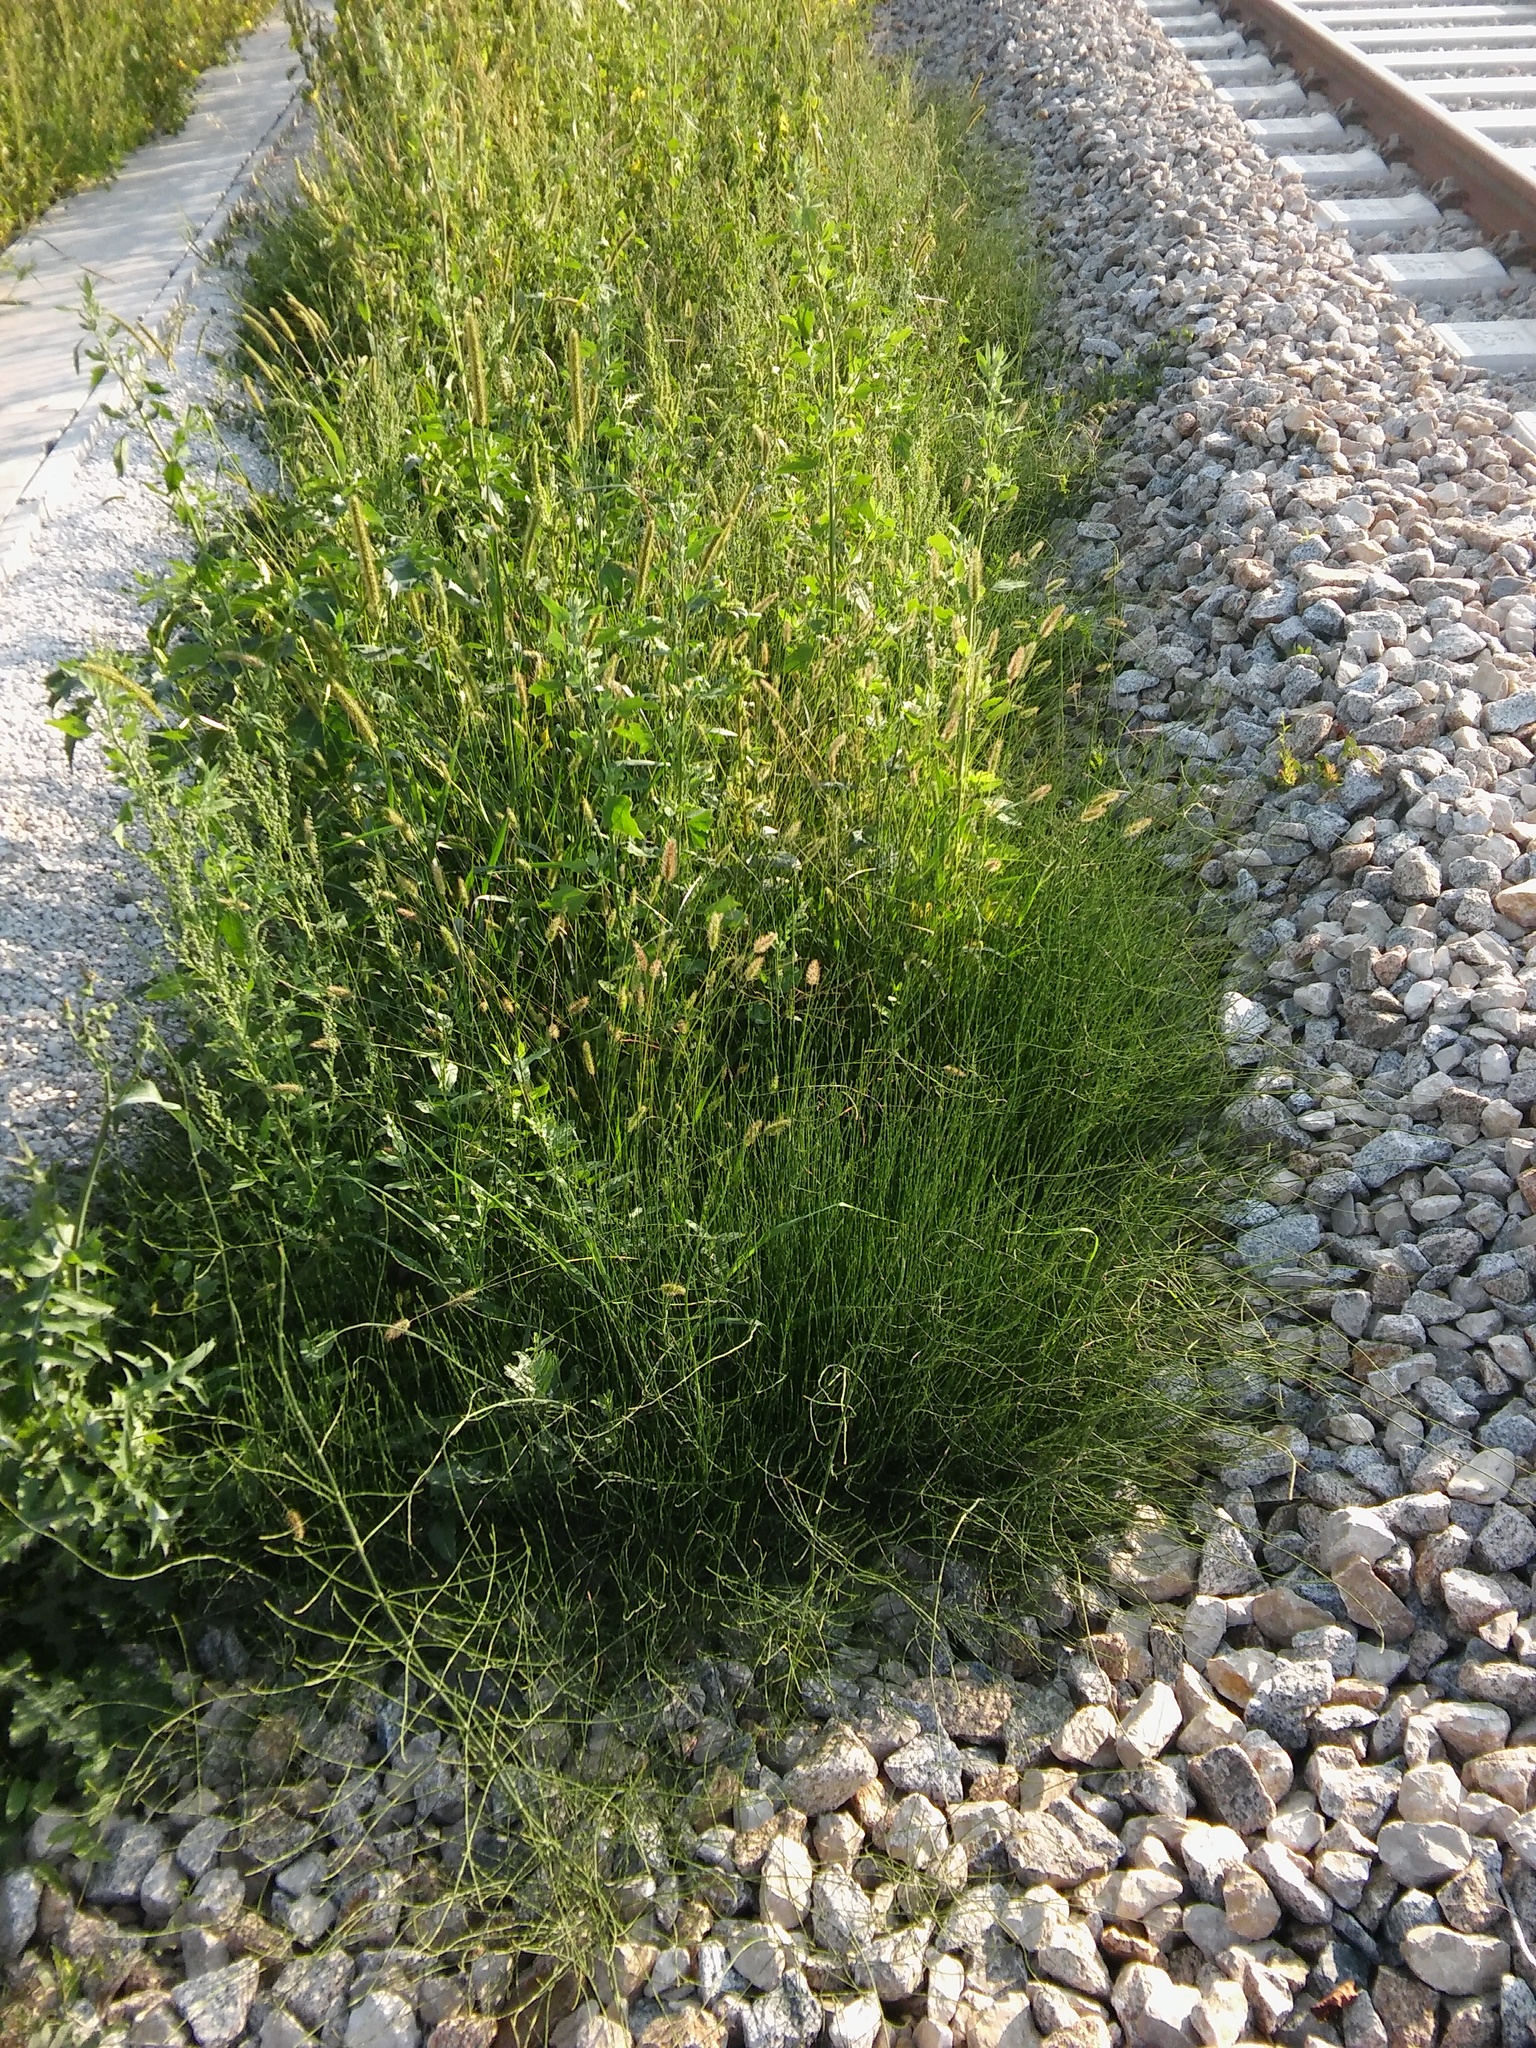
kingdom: Plantae
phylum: Tracheophyta
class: Polypodiopsida
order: Equisetales
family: Equisetaceae
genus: Equisetum
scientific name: Equisetum ramosissimum
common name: Branched horsetail
